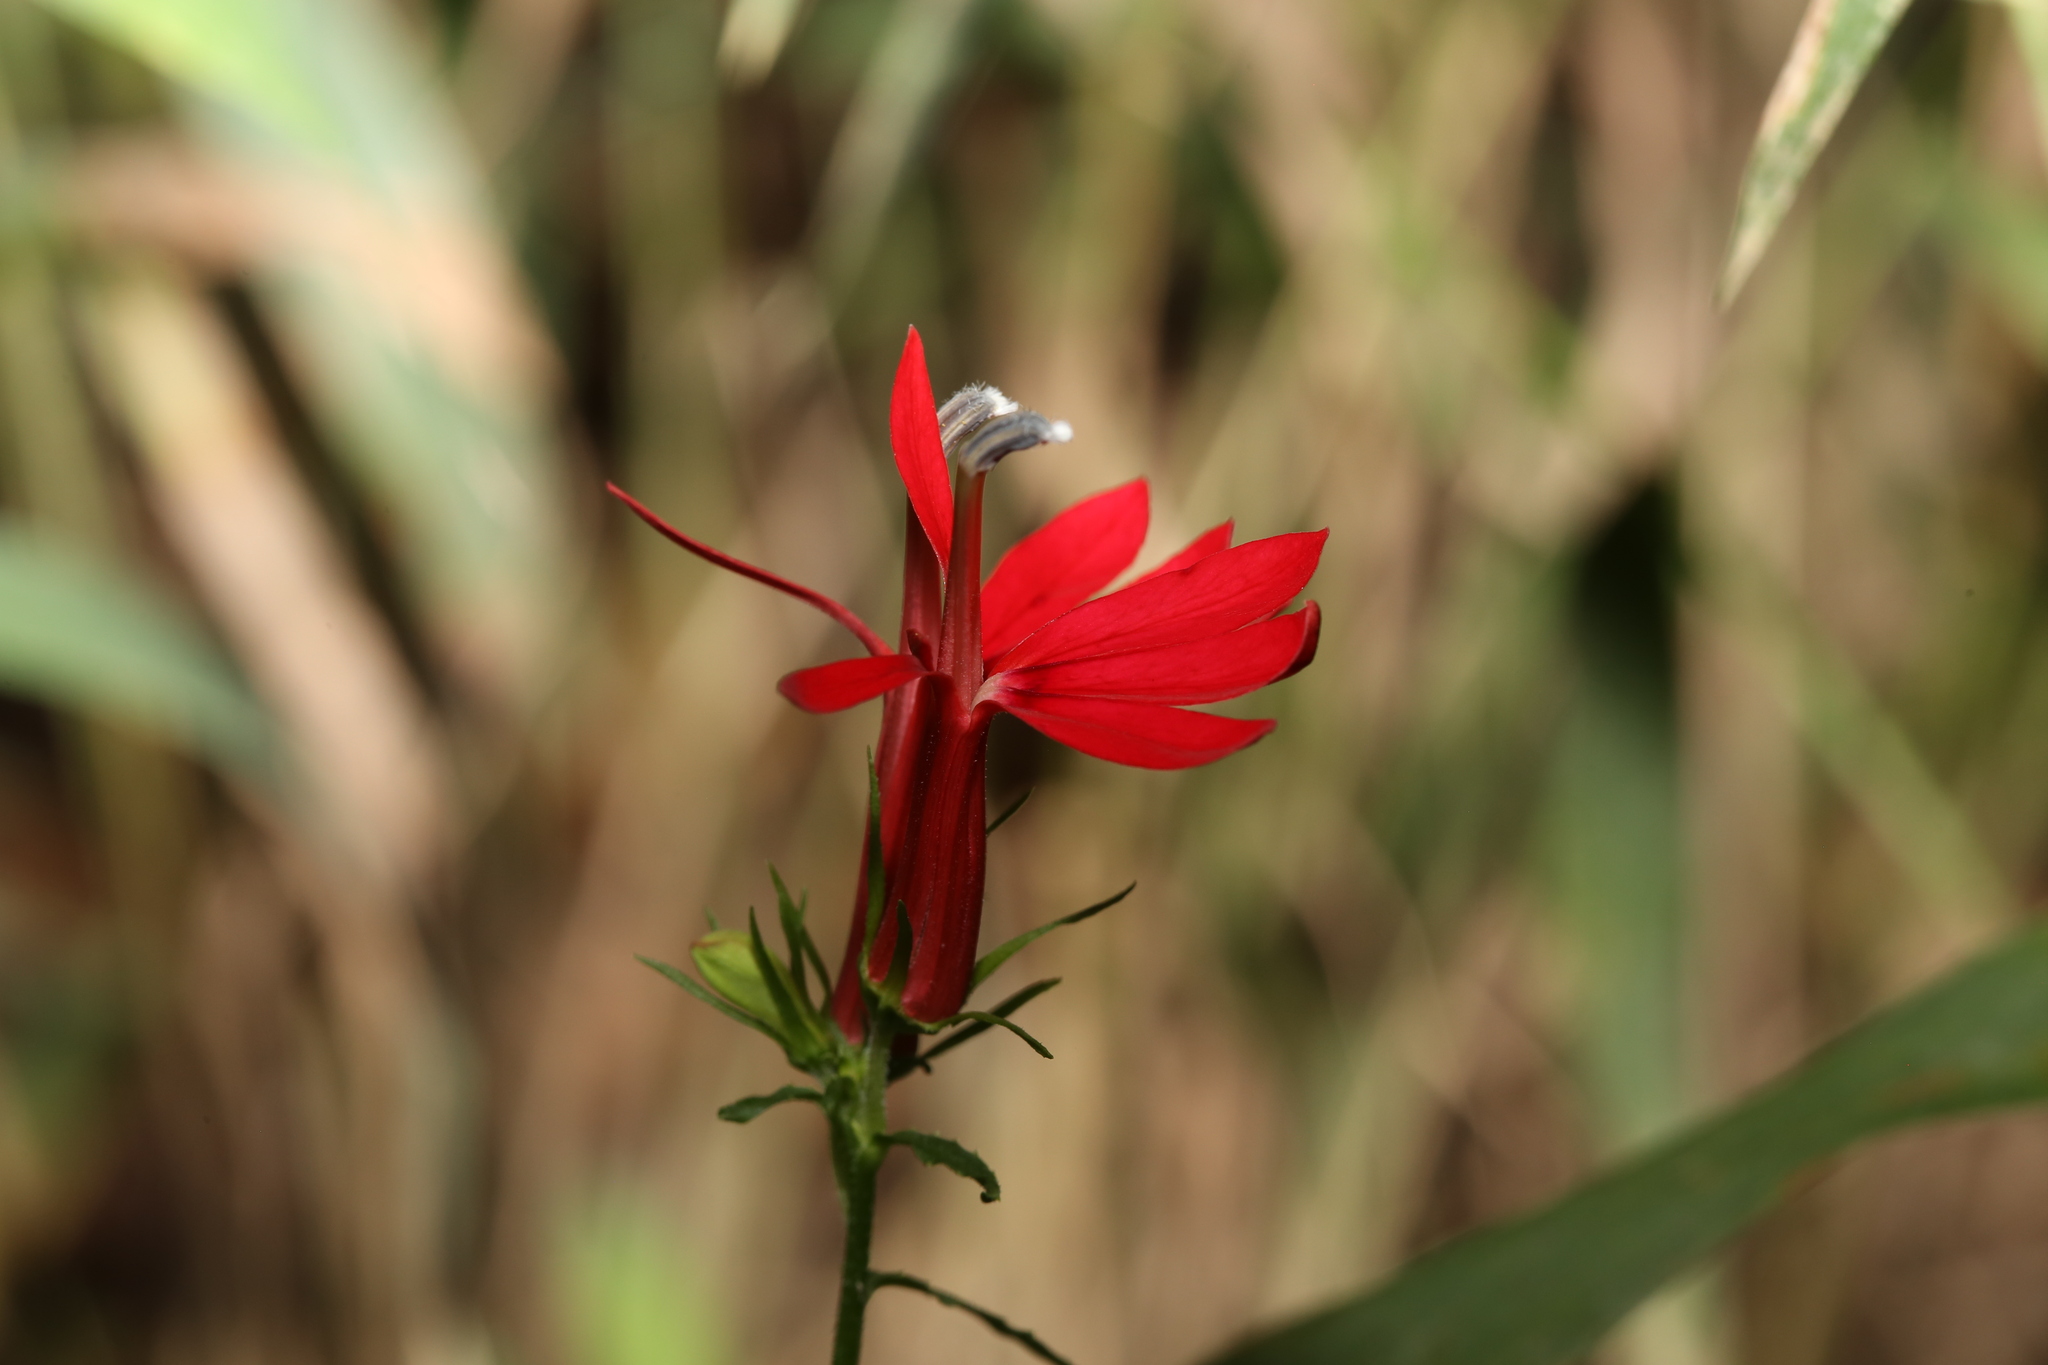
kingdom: Plantae
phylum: Tracheophyta
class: Magnoliopsida
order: Asterales
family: Campanulaceae
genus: Lobelia
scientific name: Lobelia cardinalis
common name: Cardinal flower
